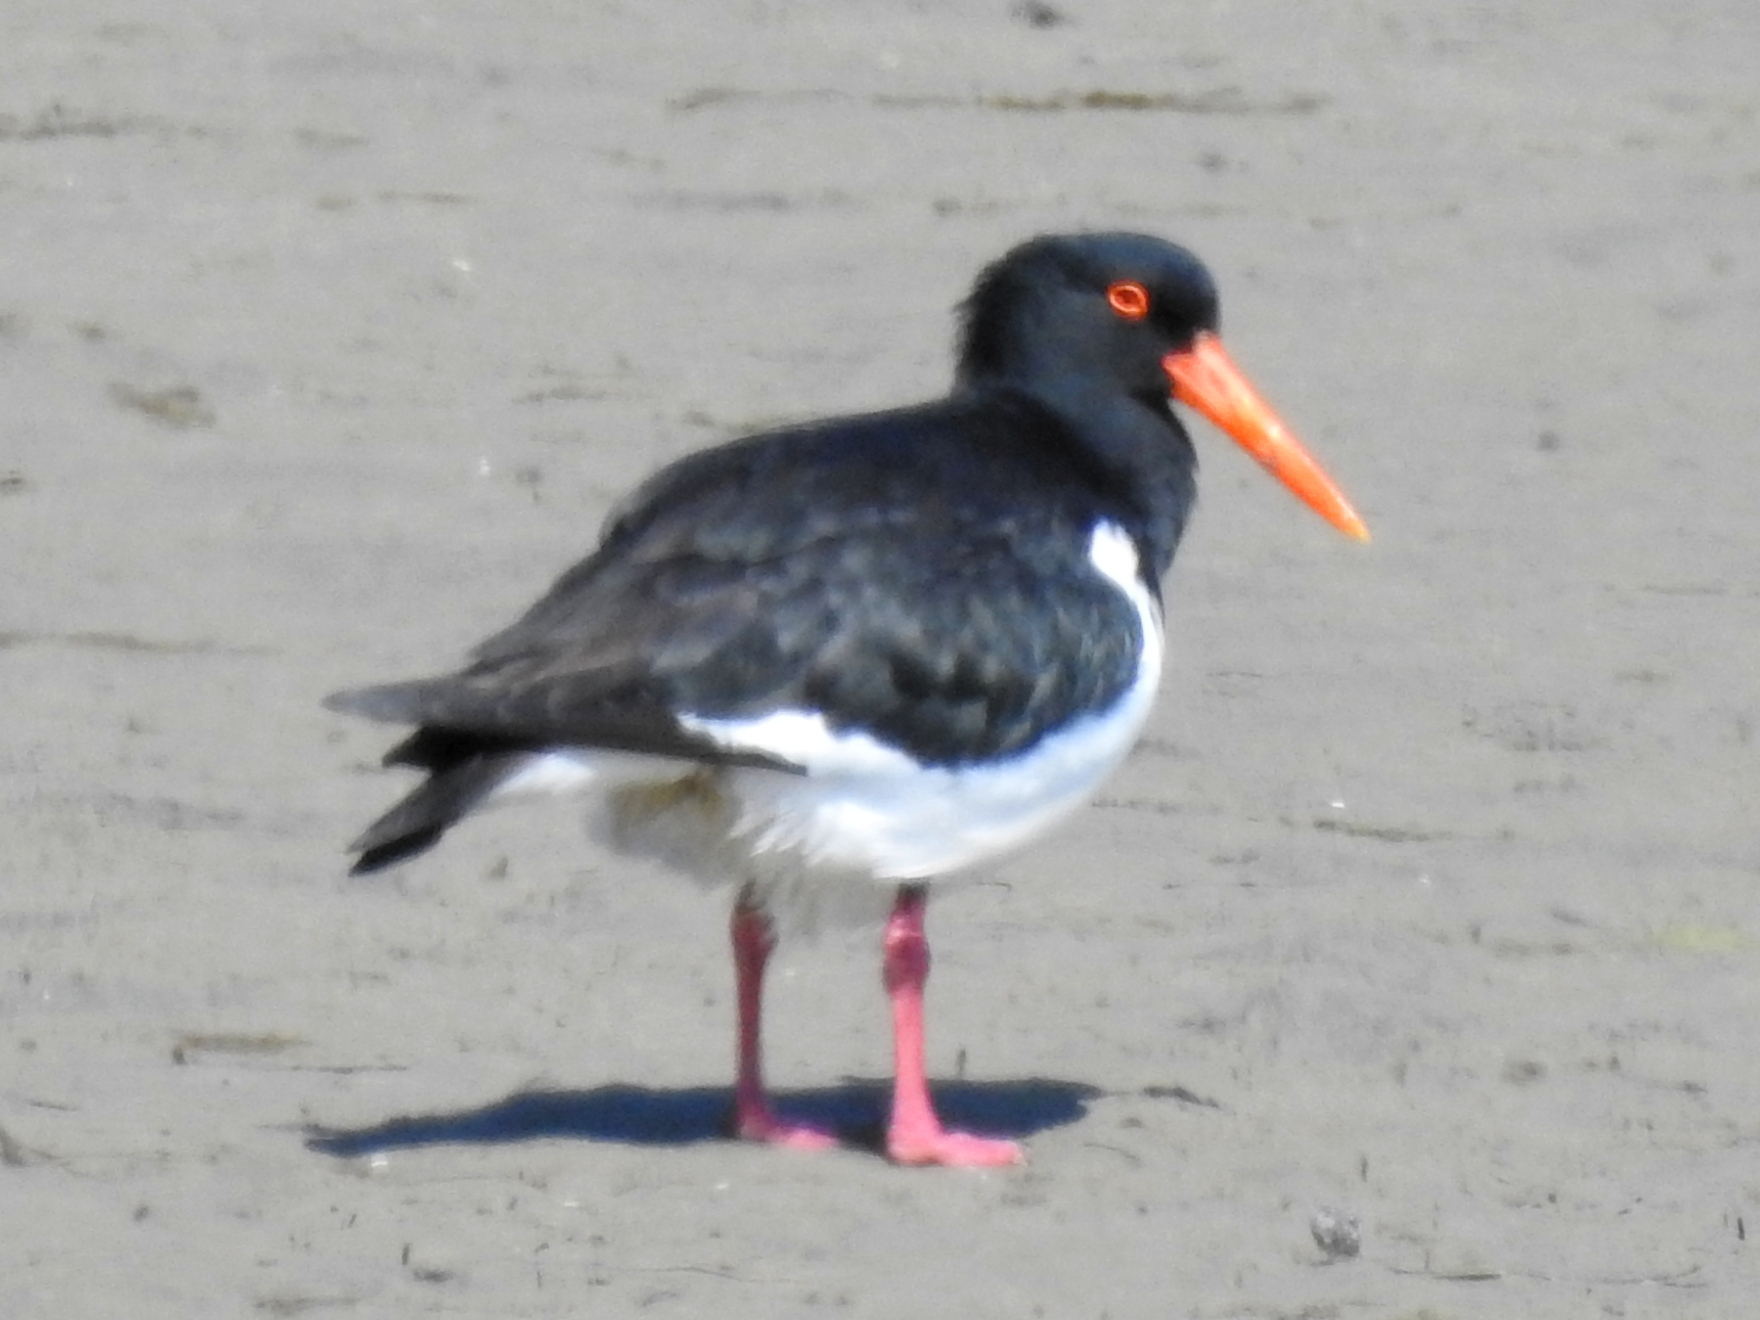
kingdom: Animalia
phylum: Chordata
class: Aves
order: Charadriiformes
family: Haematopodidae
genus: Haematopus
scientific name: Haematopus longirostris
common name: Pied oystercatcher
